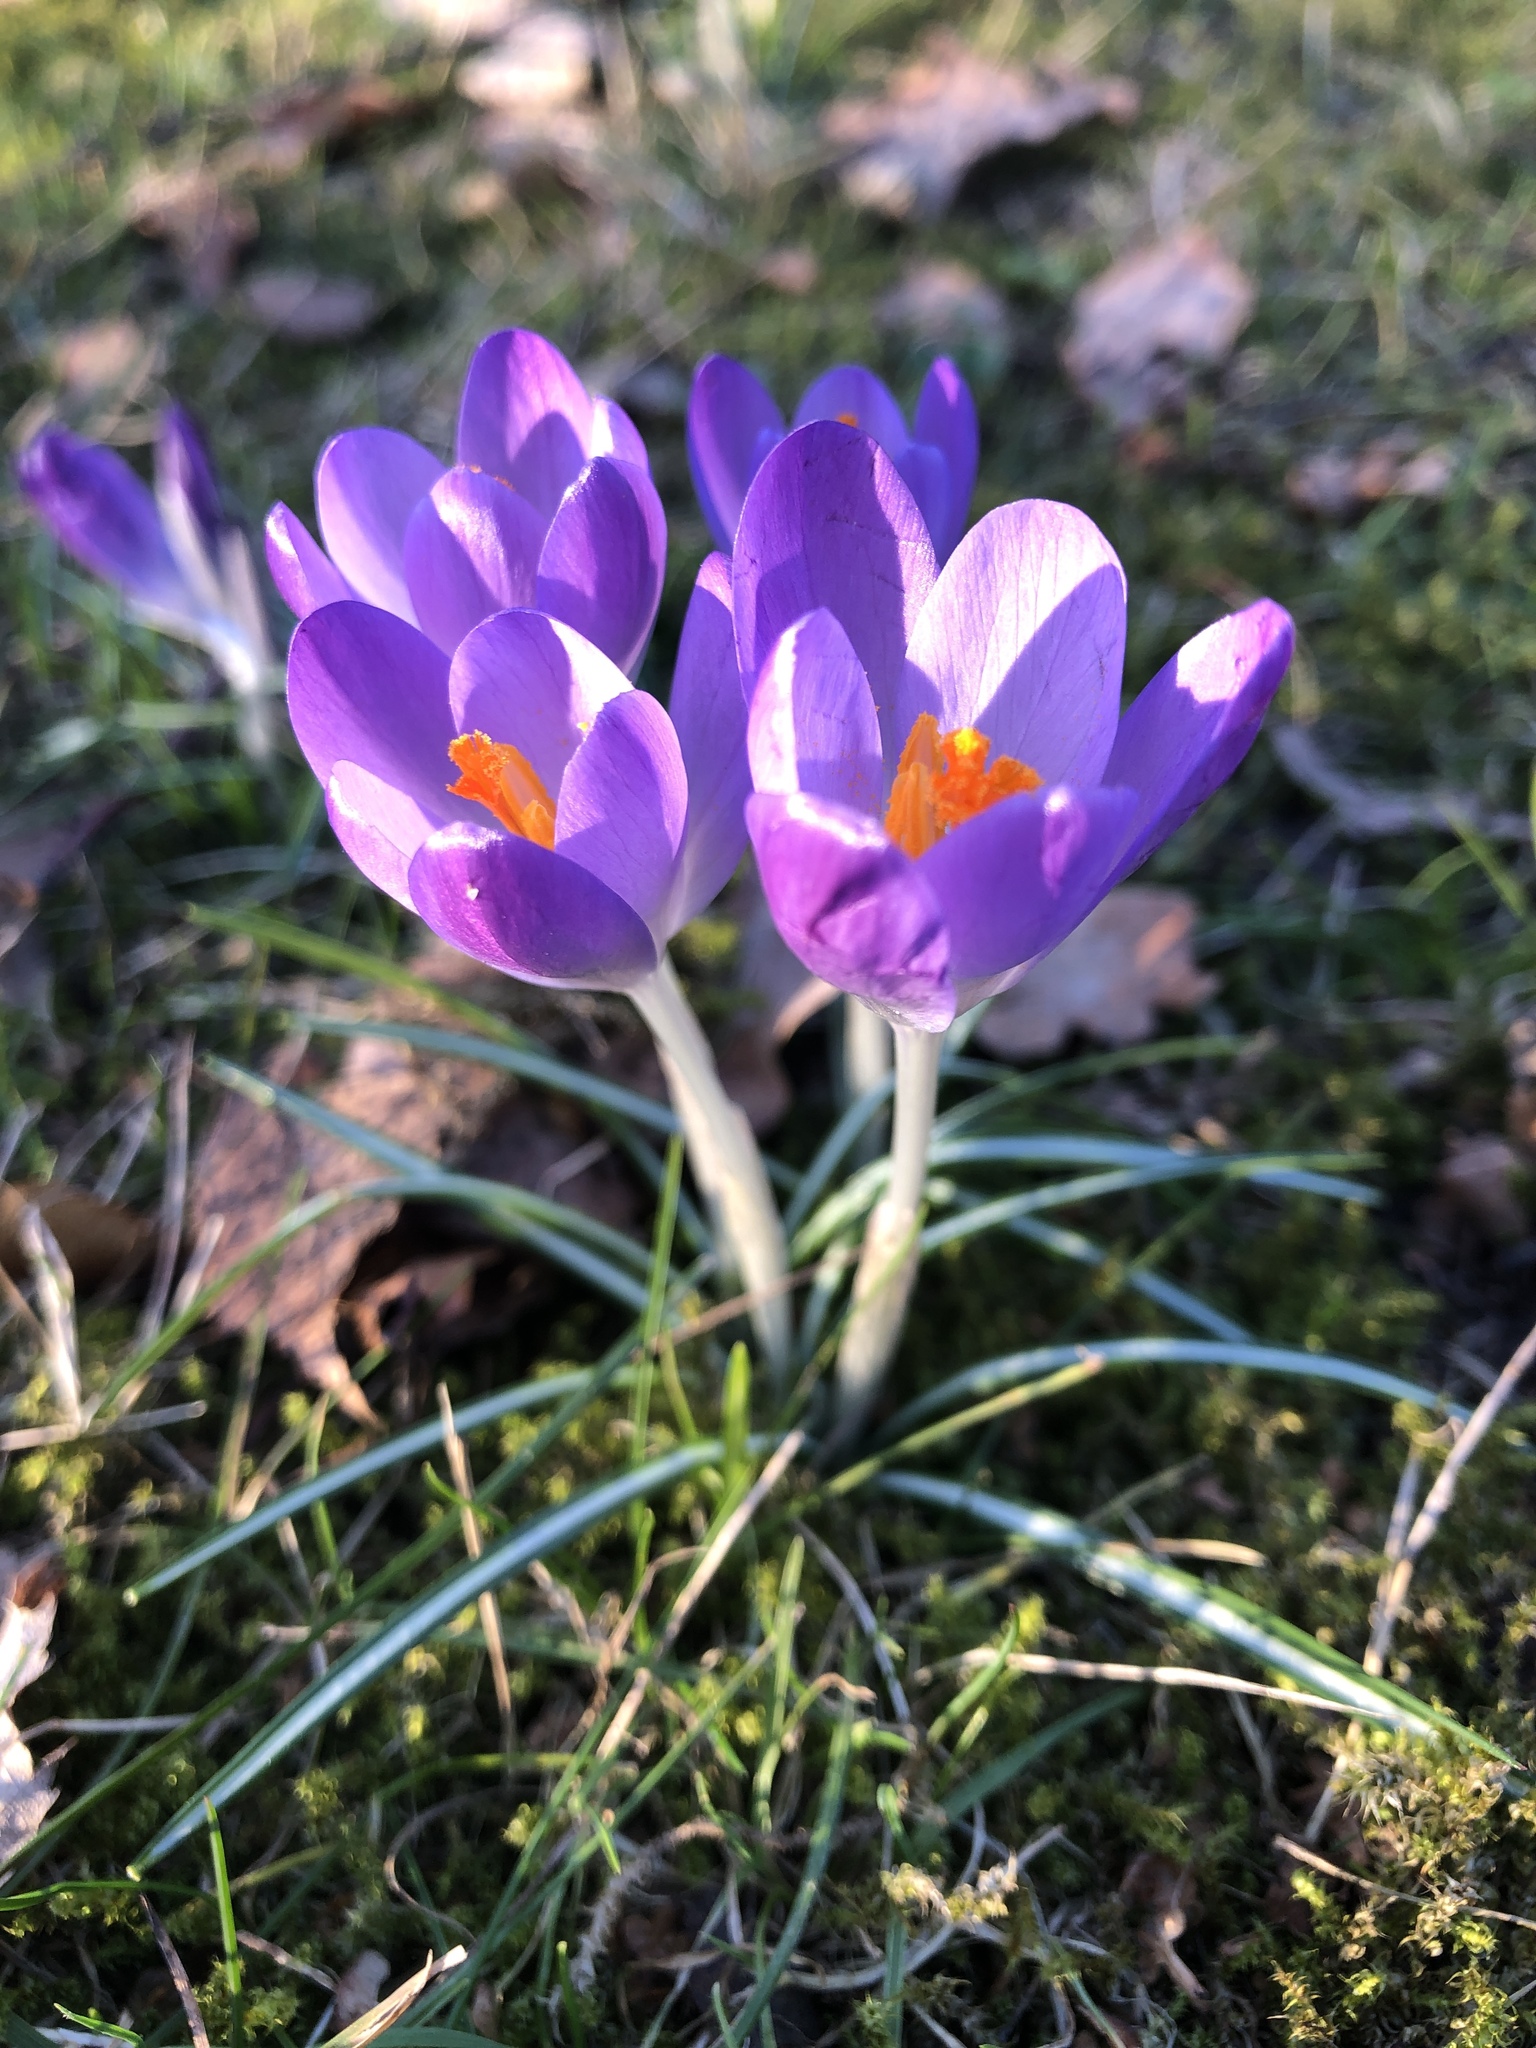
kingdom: Plantae
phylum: Tracheophyta
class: Liliopsida
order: Asparagales
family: Iridaceae
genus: Crocus
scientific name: Crocus tommasinianus
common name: Early crocus
